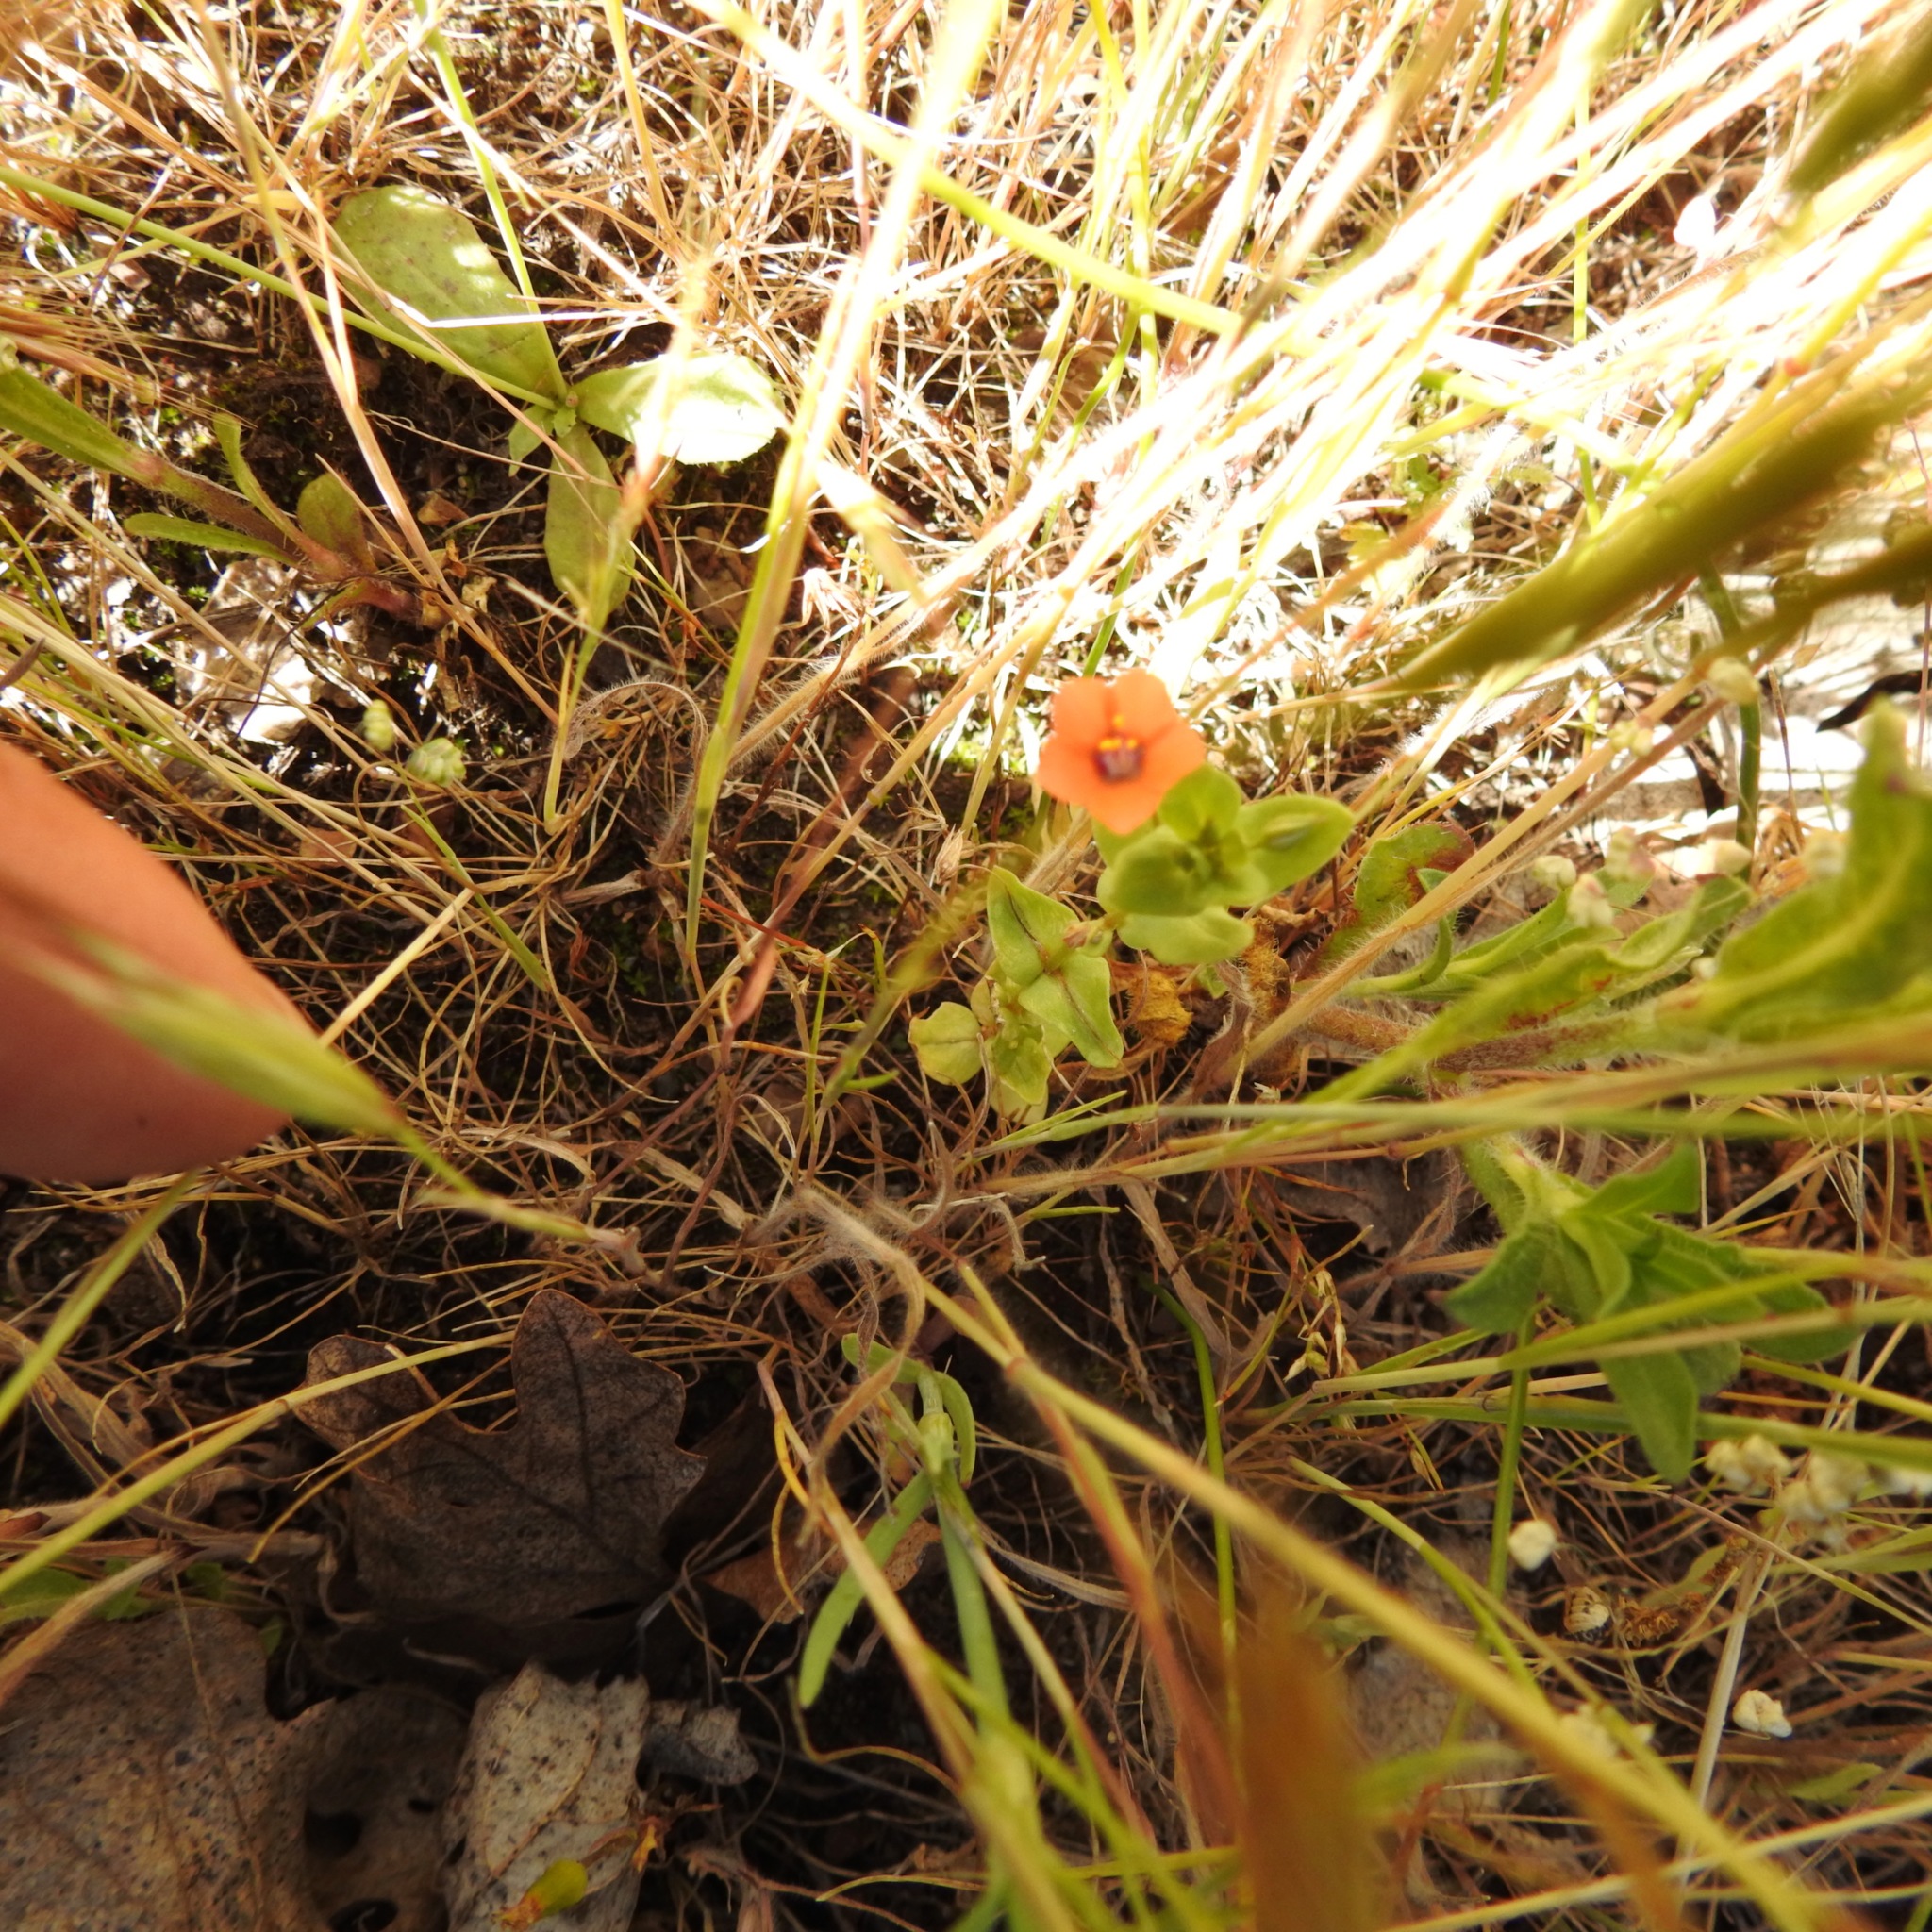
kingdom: Plantae
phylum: Tracheophyta
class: Magnoliopsida
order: Ericales
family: Primulaceae
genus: Lysimachia
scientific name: Lysimachia arvensis
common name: Scarlet pimpernel
